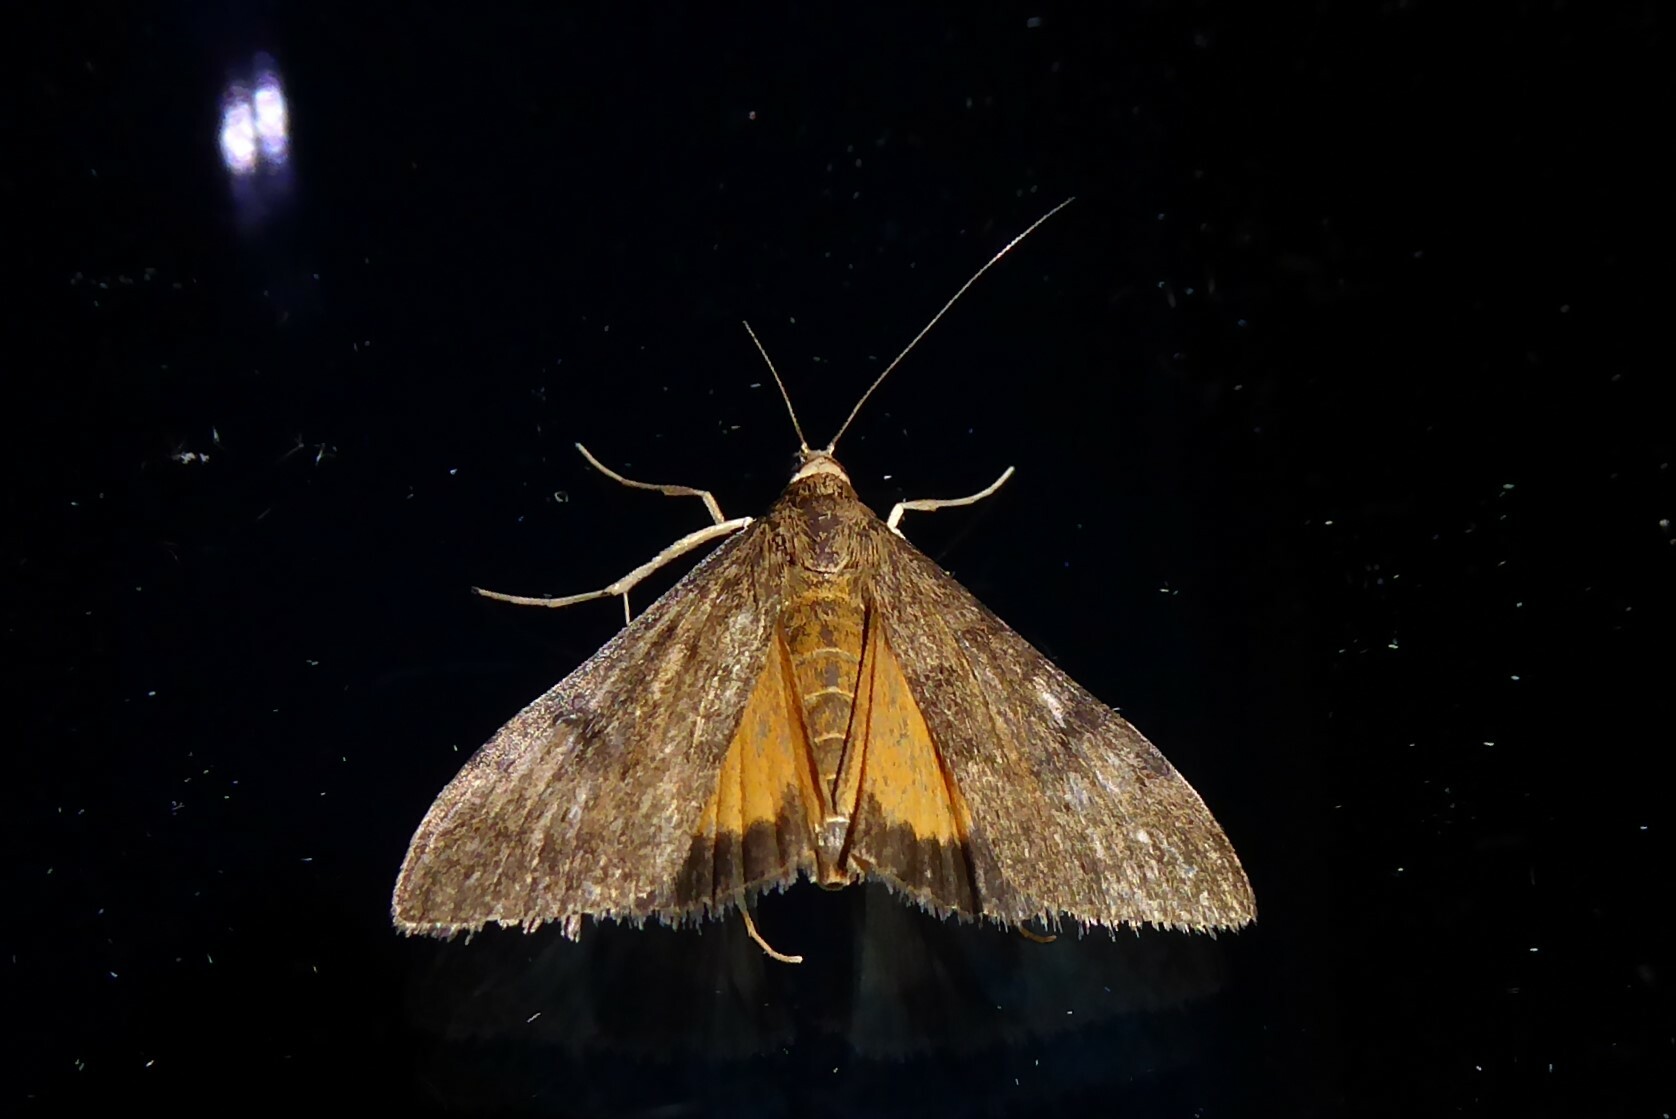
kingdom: Animalia
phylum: Arthropoda
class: Insecta
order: Lepidoptera
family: Crambidae
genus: Uresiphita
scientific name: Uresiphita
